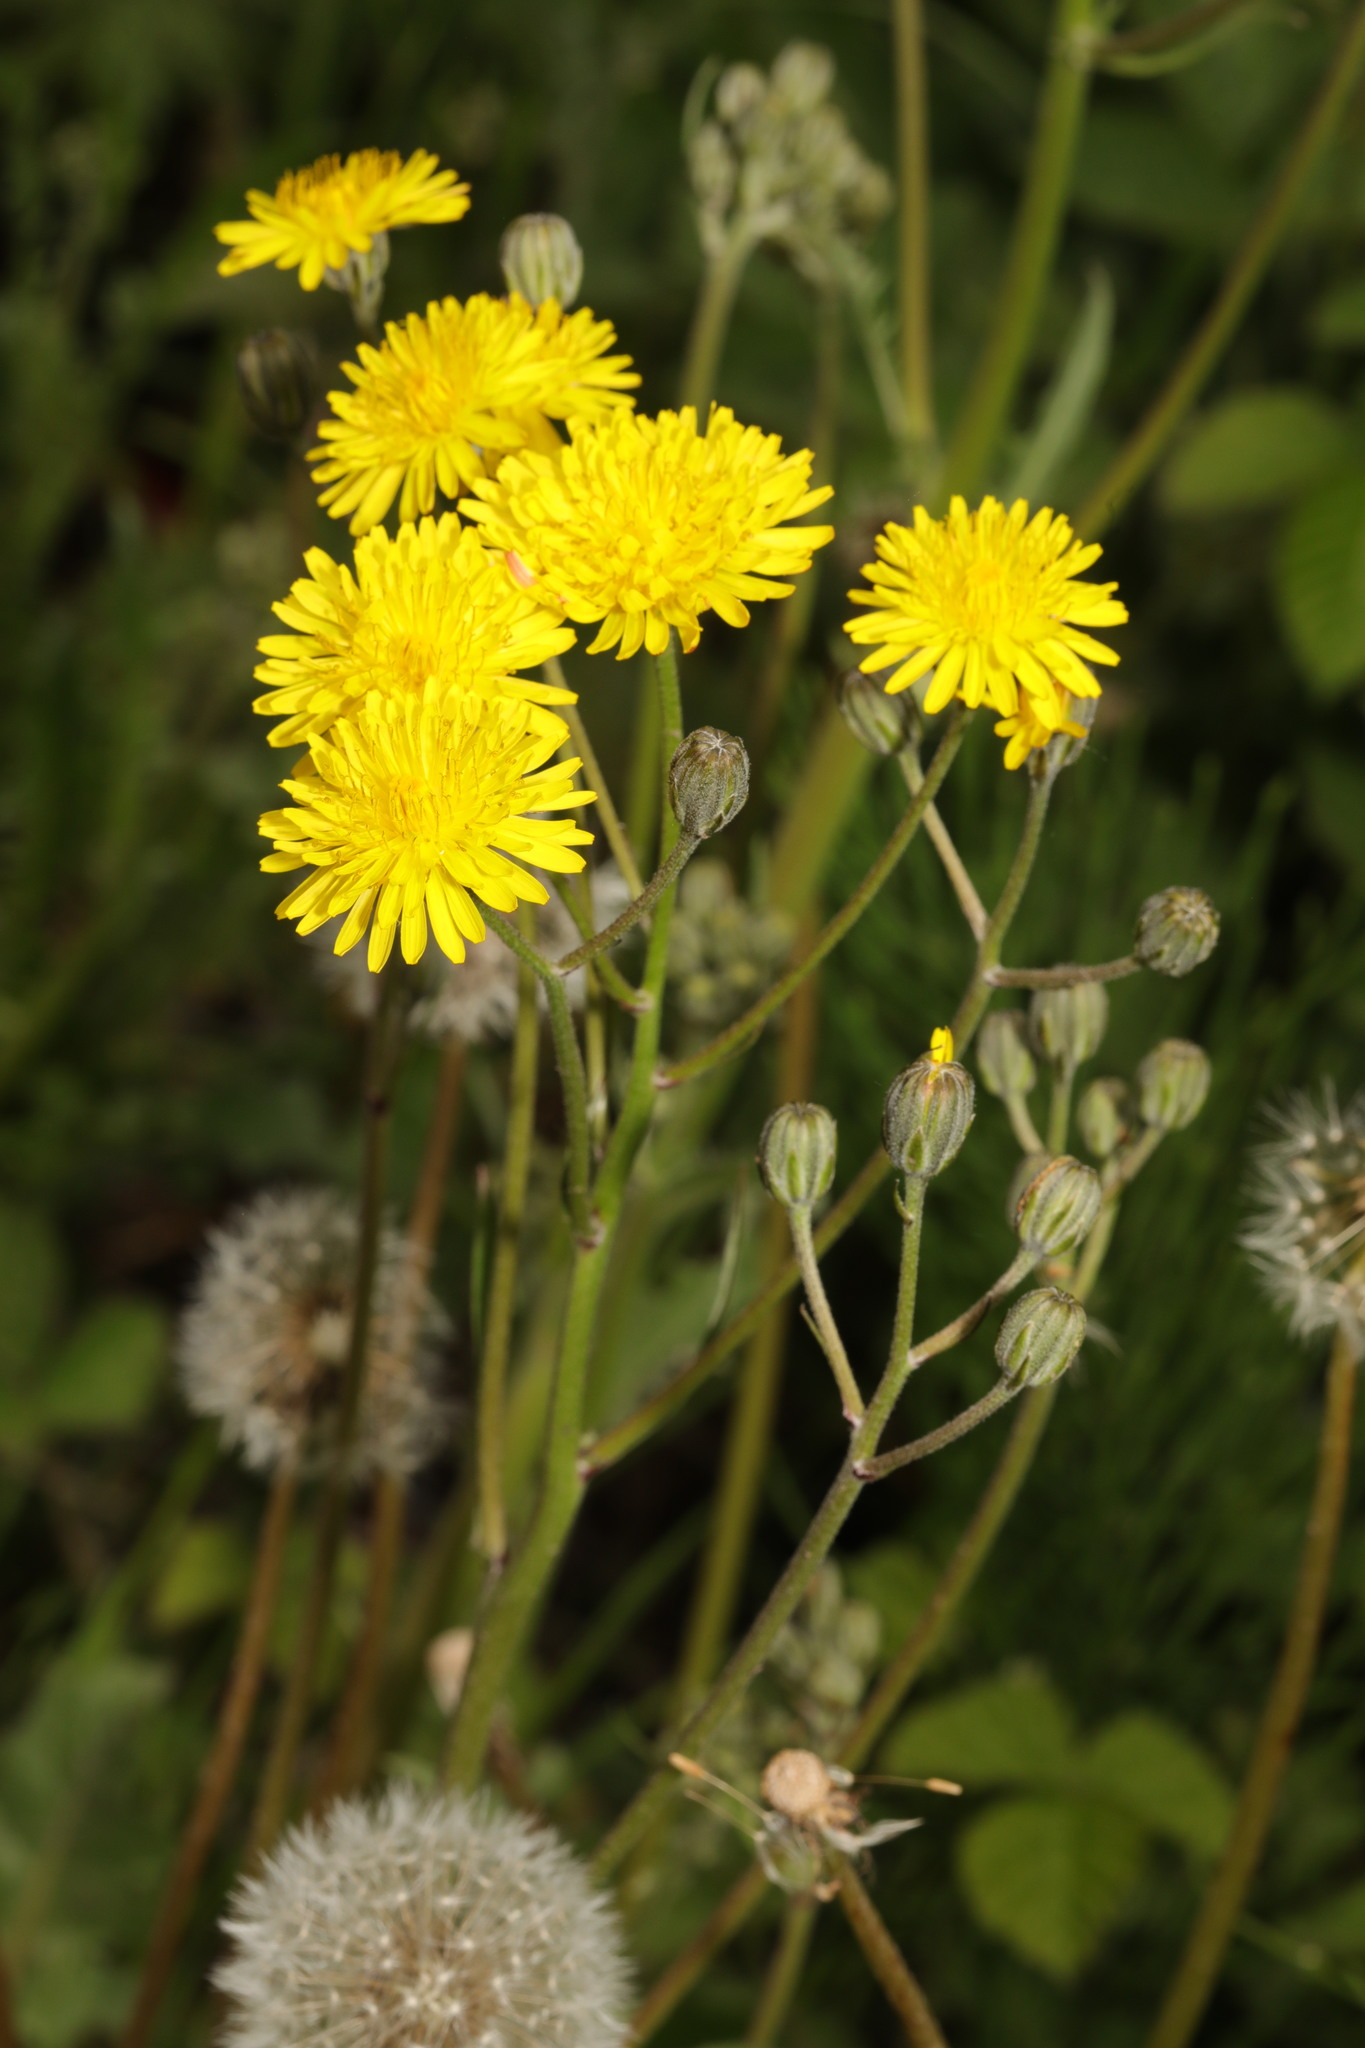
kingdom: Plantae
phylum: Tracheophyta
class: Magnoliopsida
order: Asterales
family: Asteraceae
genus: Crepis
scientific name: Crepis vesicaria
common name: Beaked hawksbeard
